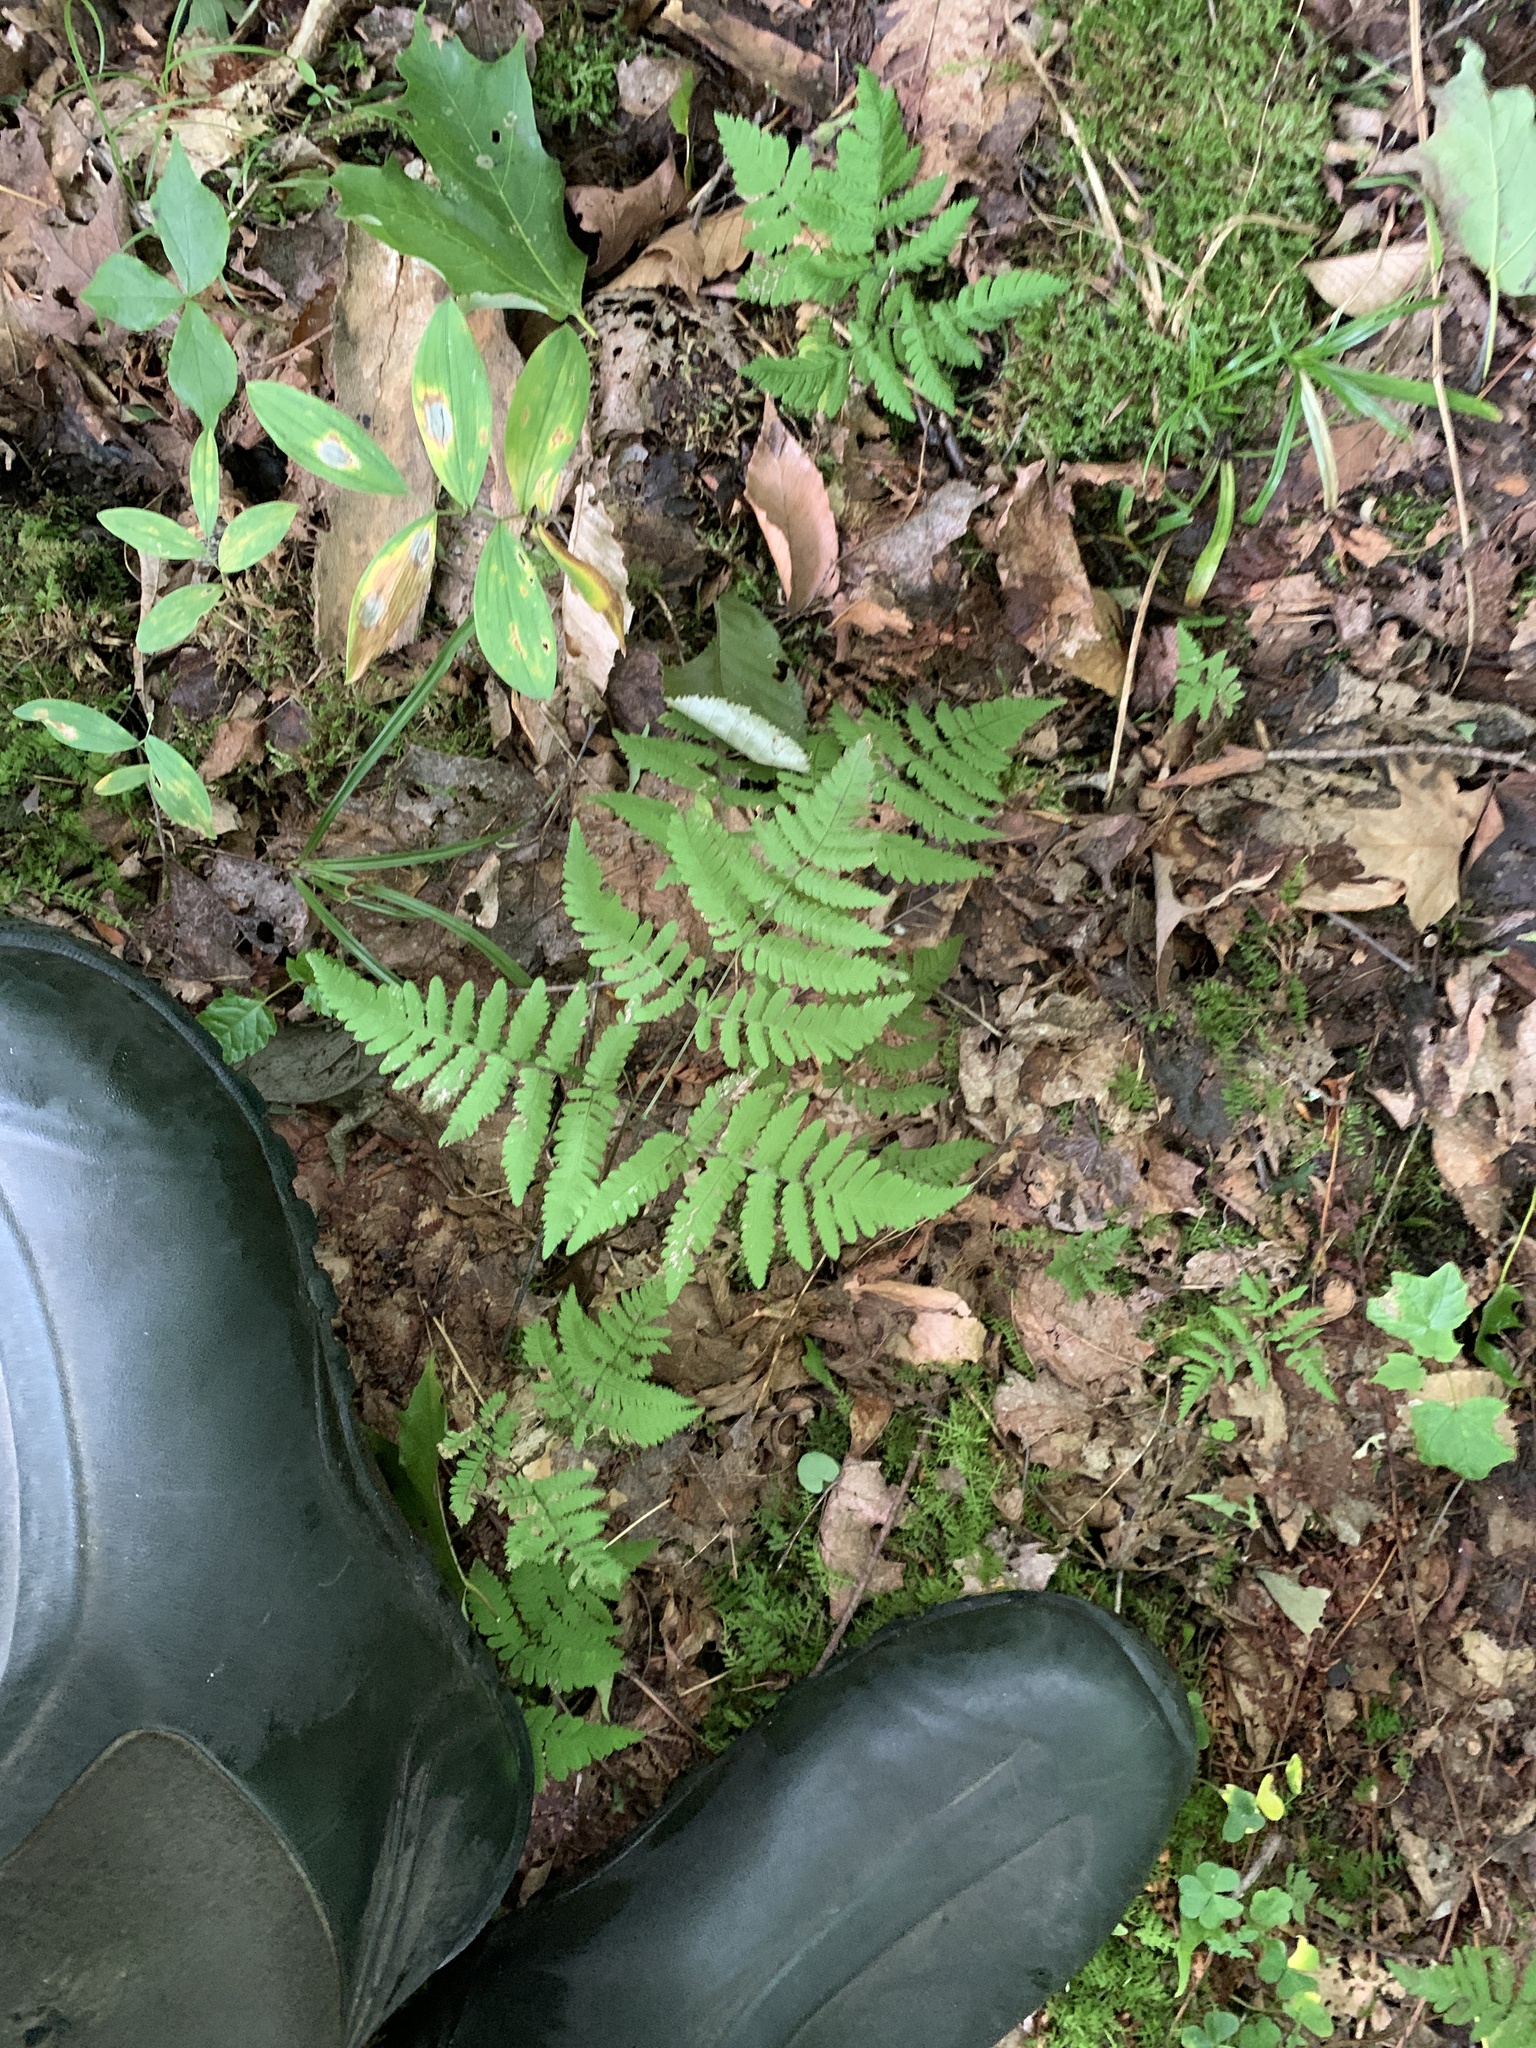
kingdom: Plantae
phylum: Tracheophyta
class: Polypodiopsida
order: Polypodiales
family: Cystopteridaceae
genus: Gymnocarpium
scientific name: Gymnocarpium dryopteris
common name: Oak fern
